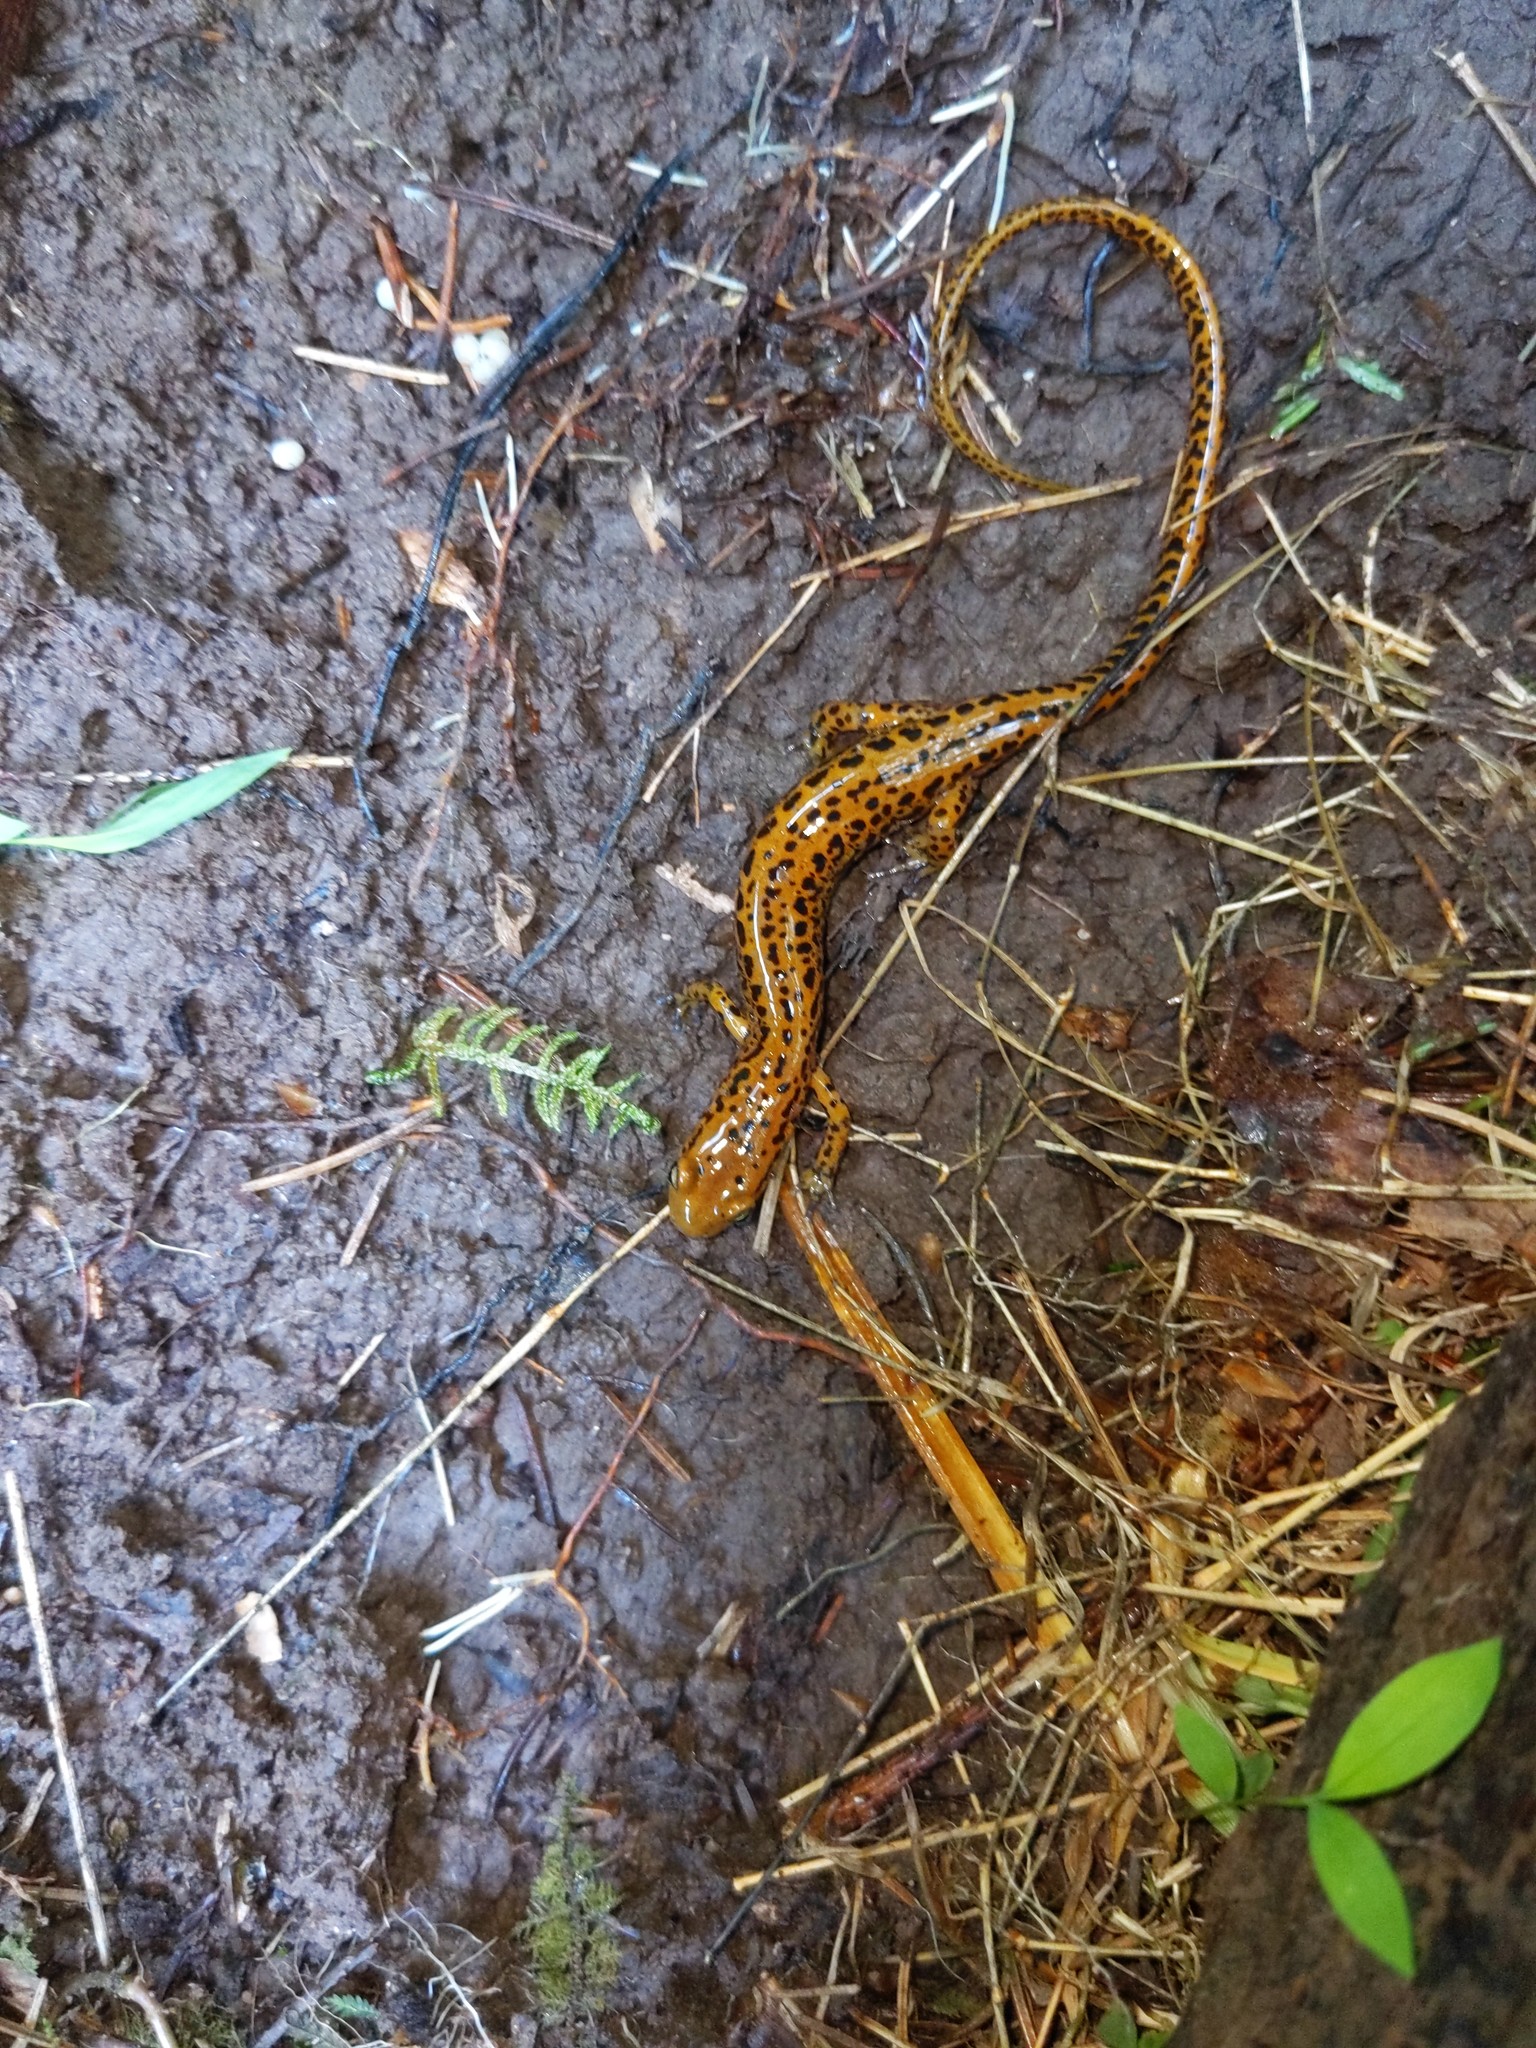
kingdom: Animalia
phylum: Chordata
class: Amphibia
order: Caudata
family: Plethodontidae
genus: Eurycea
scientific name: Eurycea longicauda
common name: Long-tailed salamander
